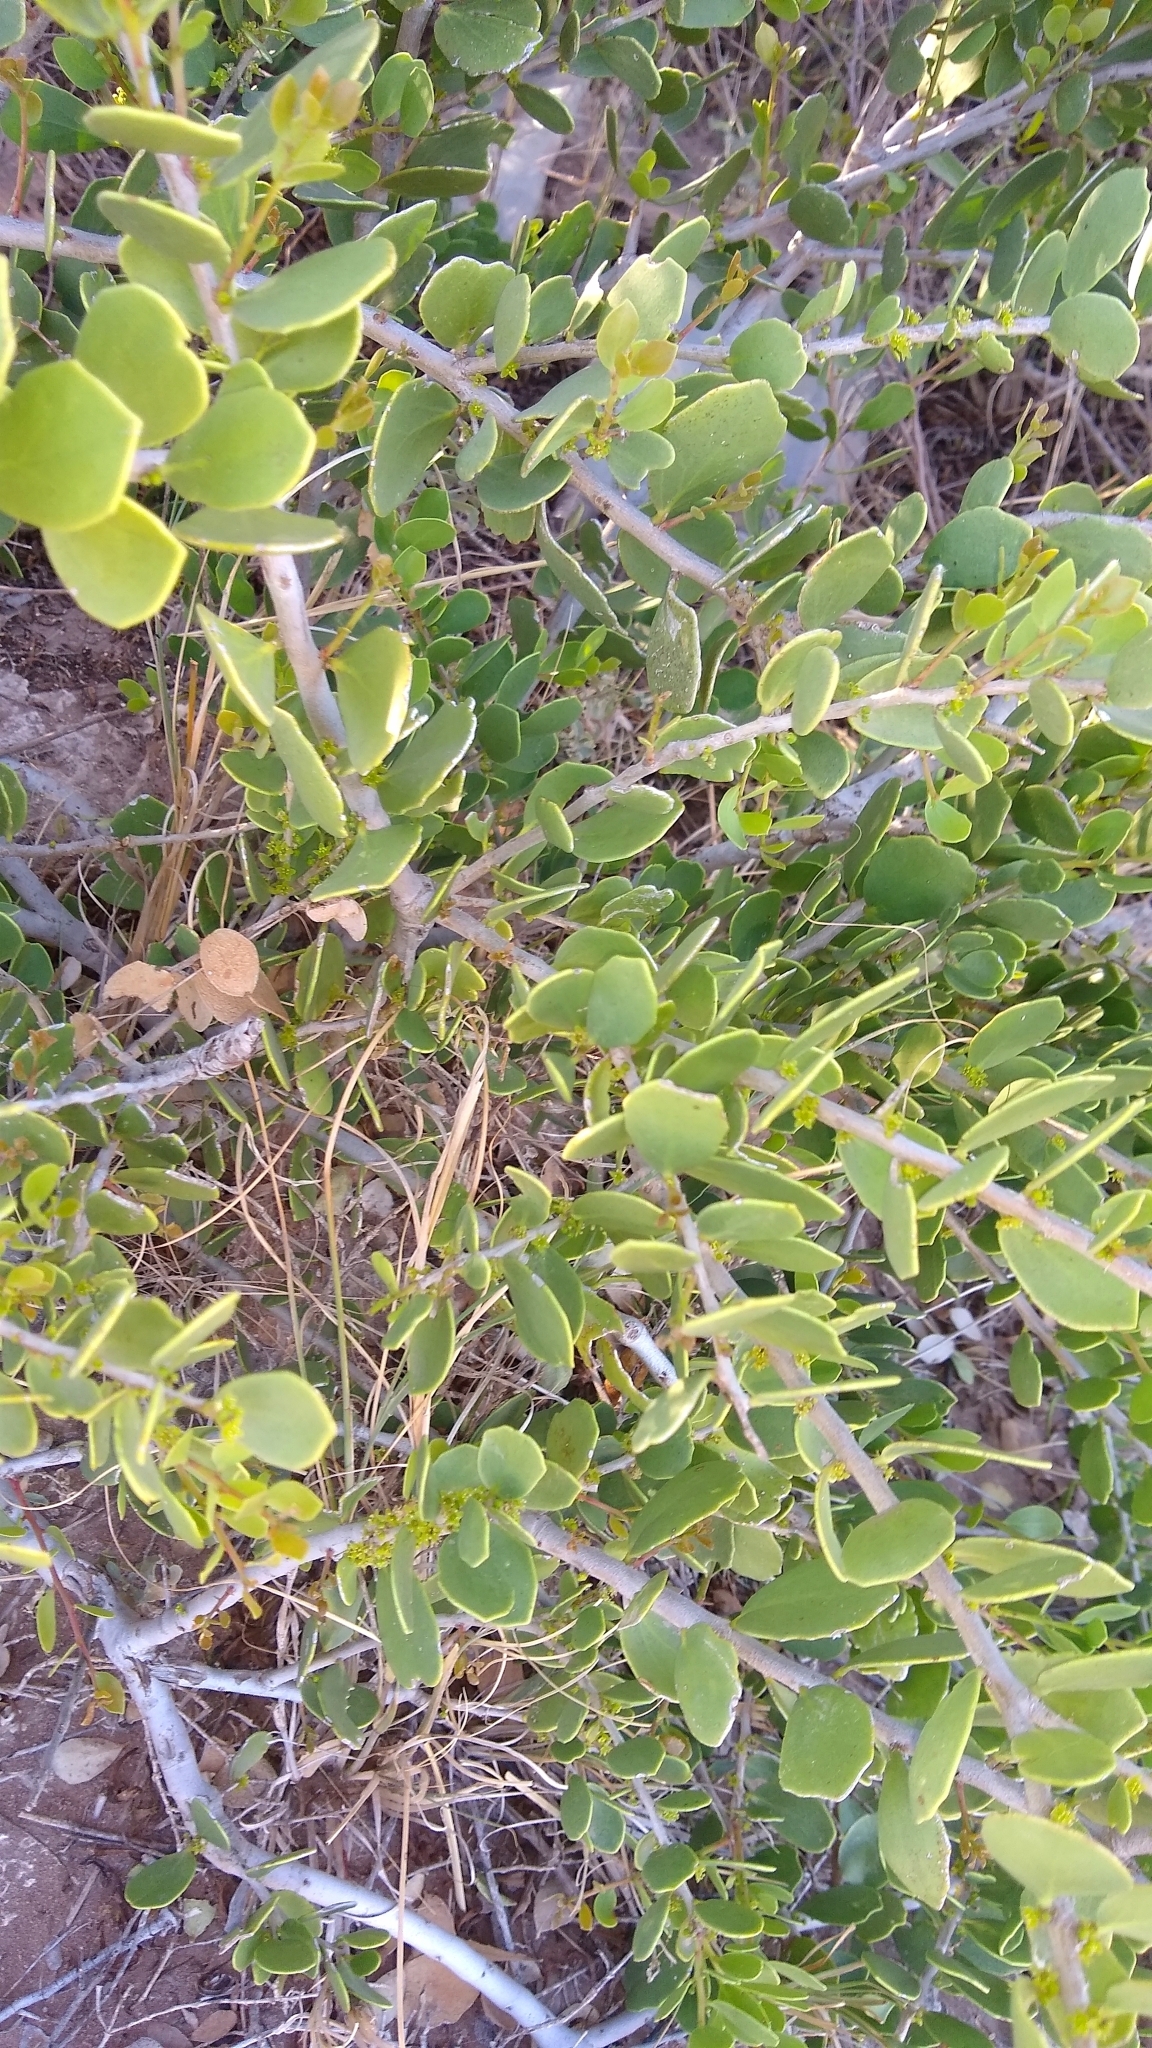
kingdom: Plantae
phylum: Tracheophyta
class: Magnoliopsida
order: Celastrales
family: Celastraceae
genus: Tricerma
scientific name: Tricerma vitis-idaeum
